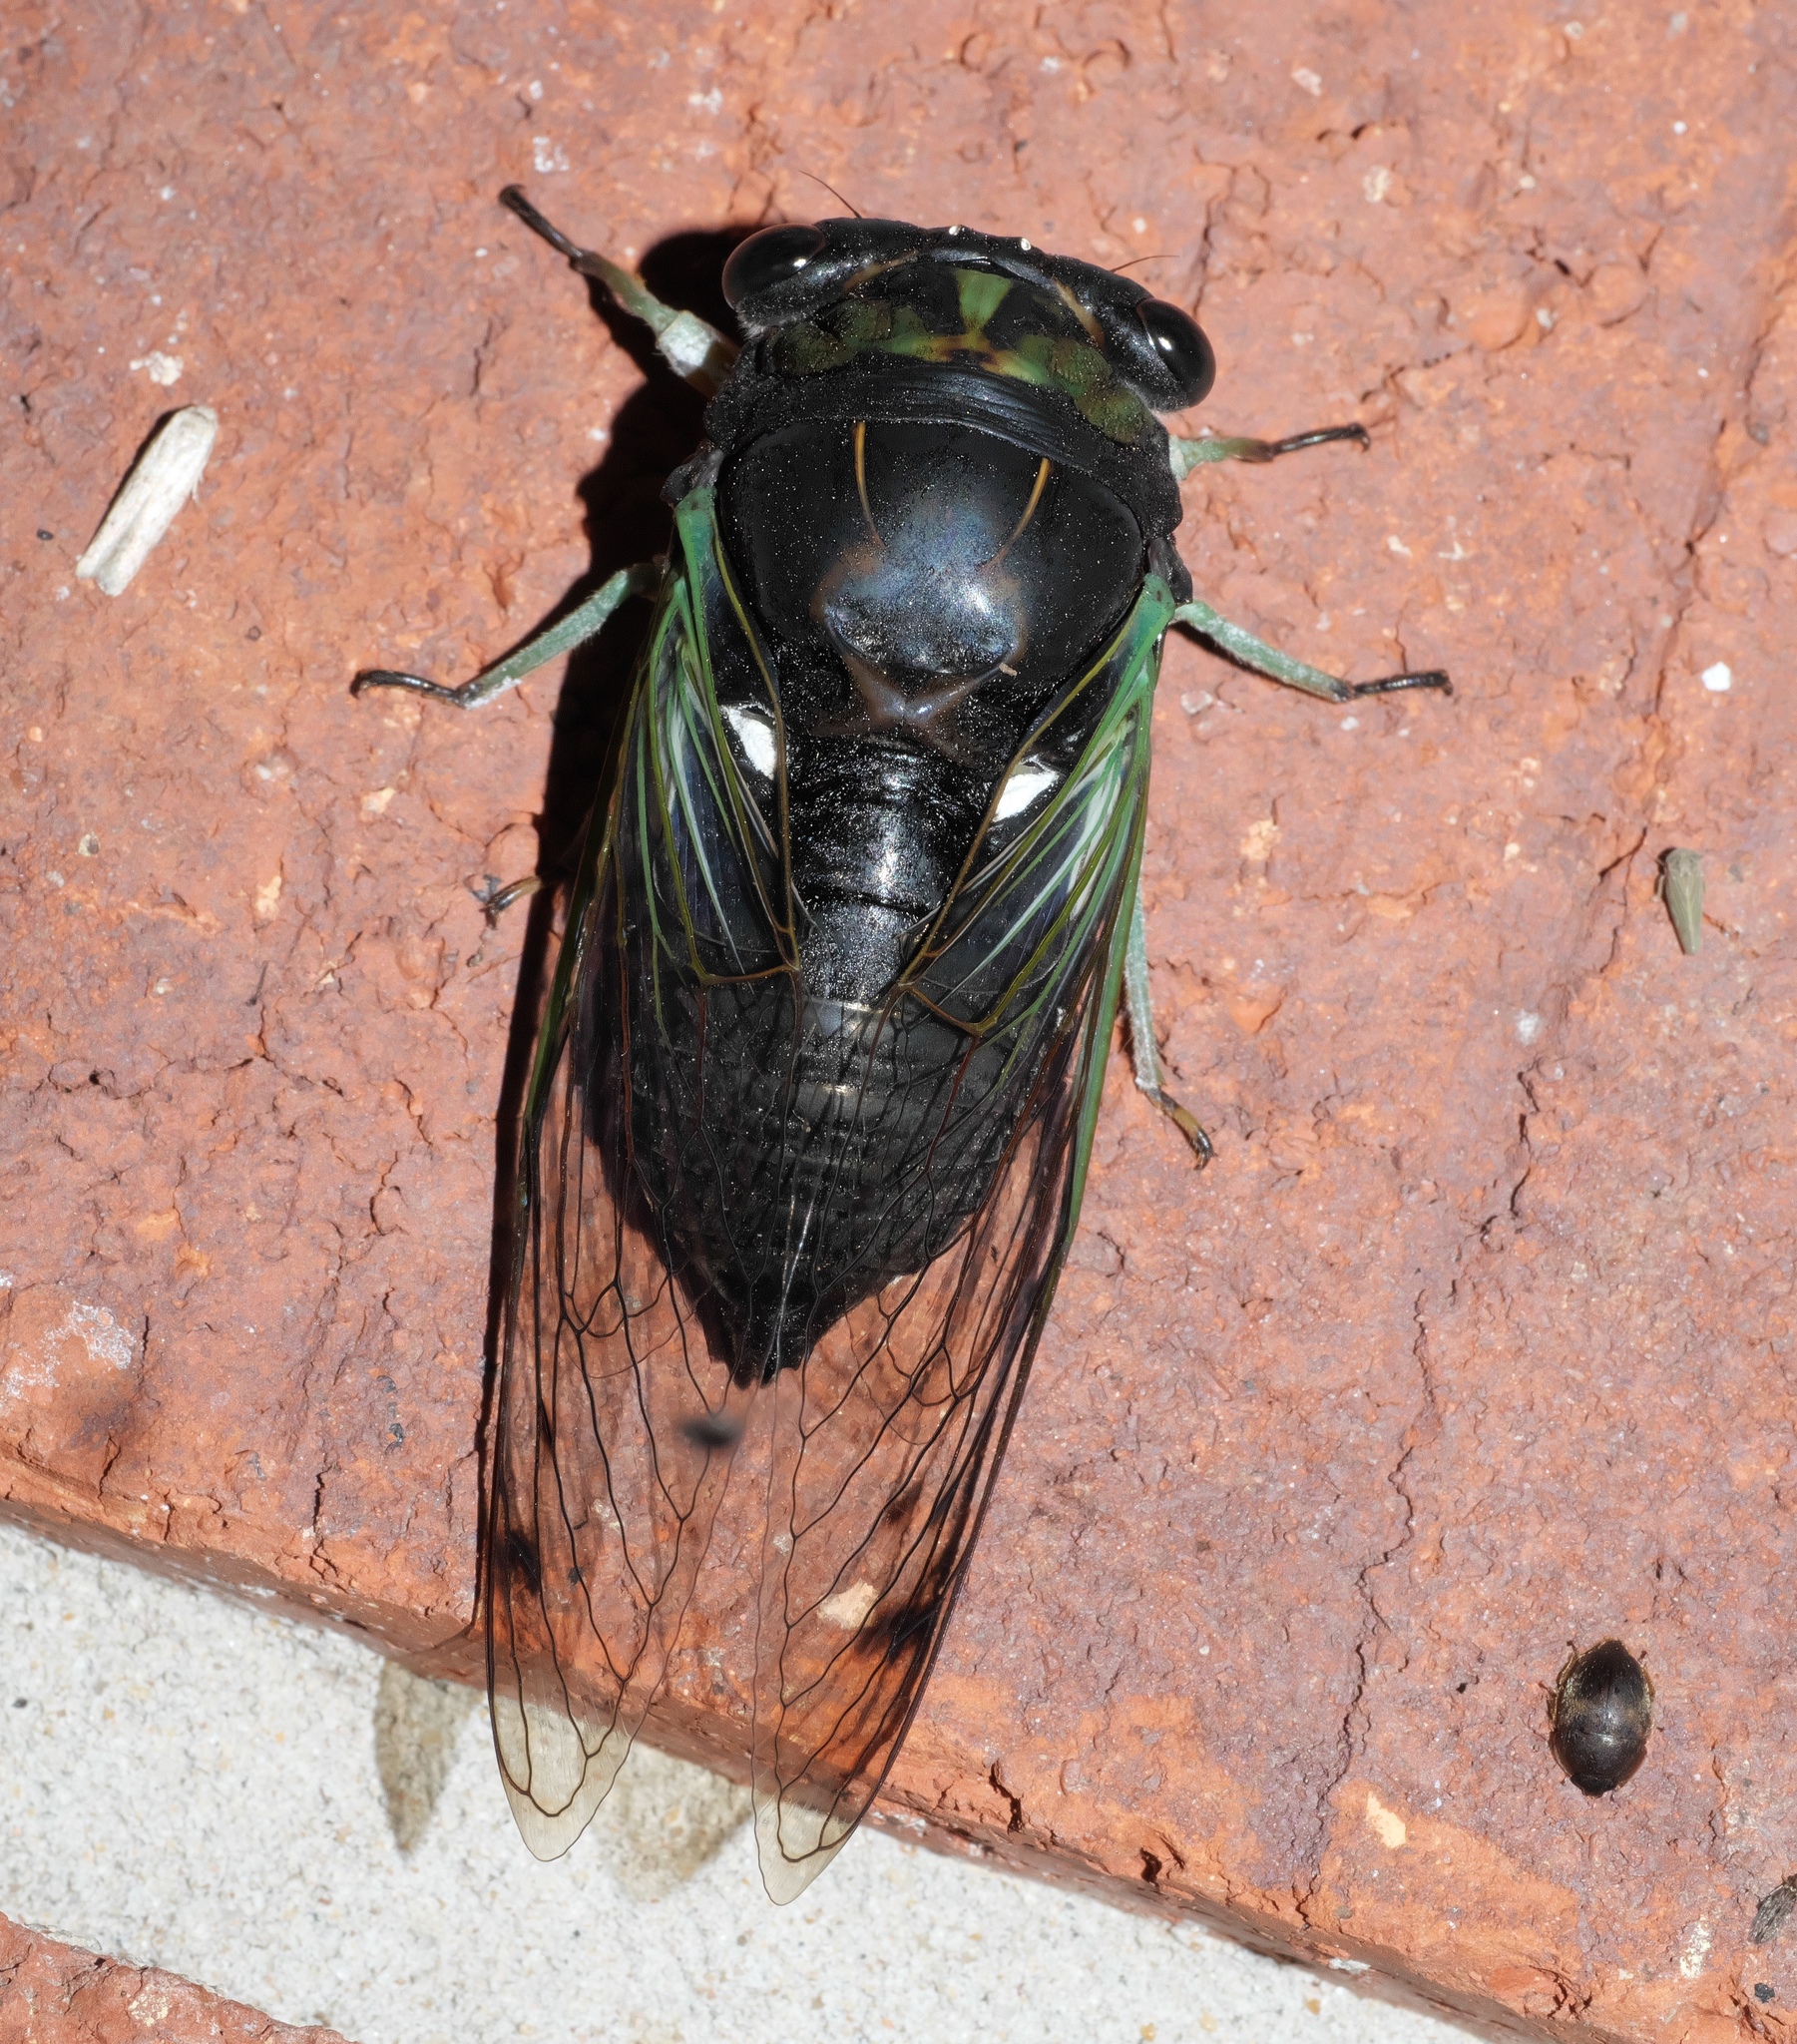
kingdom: Animalia
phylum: Arthropoda
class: Insecta
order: Hemiptera
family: Cicadidae
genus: Neotibicen
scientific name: Neotibicen tibicen
